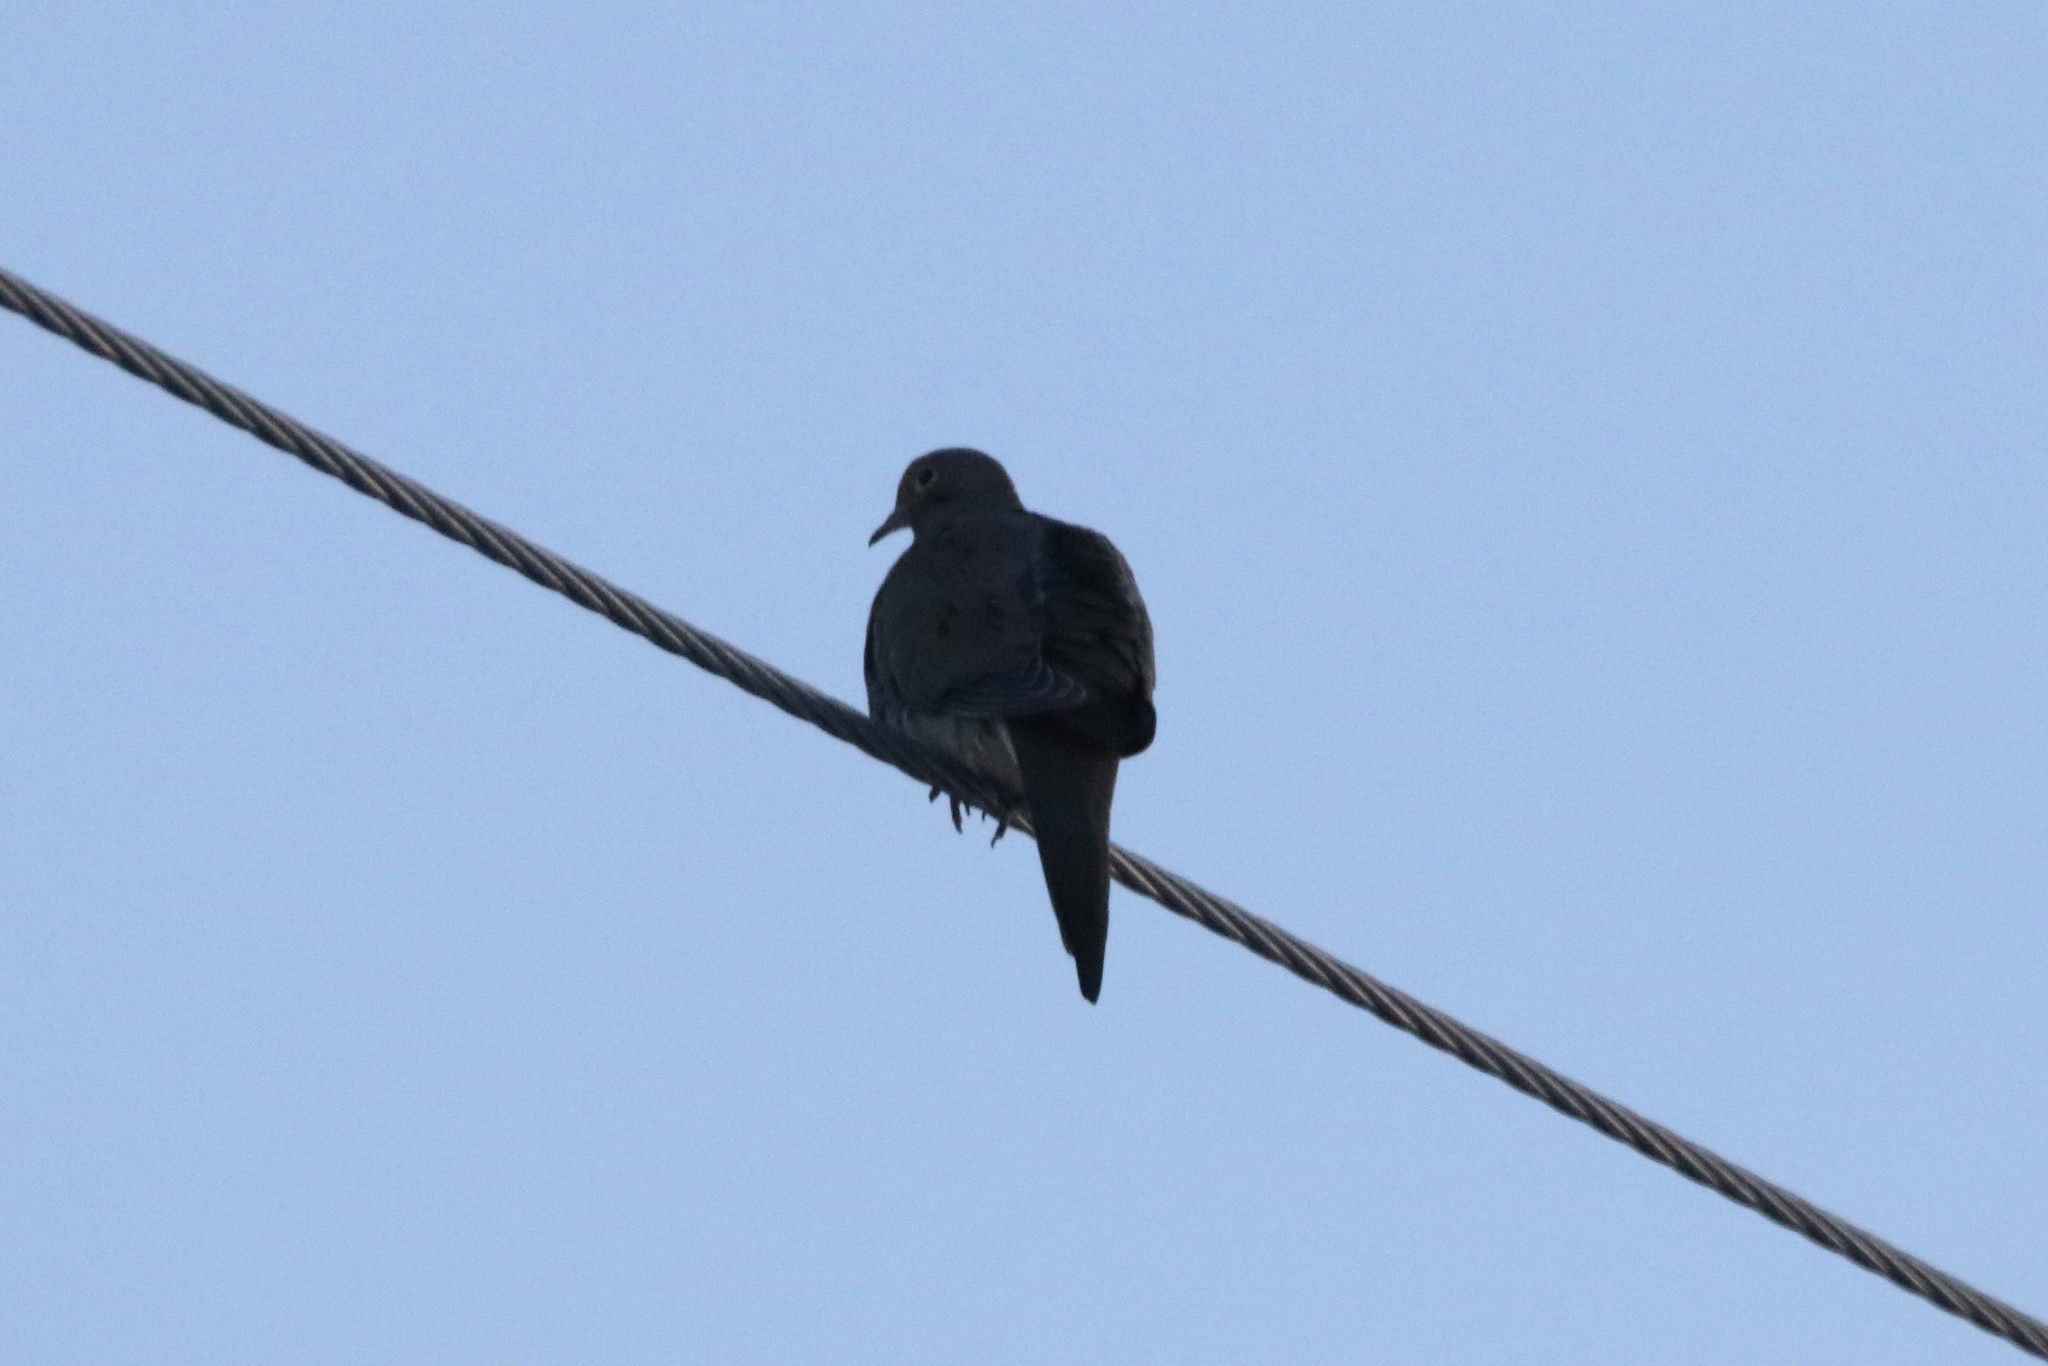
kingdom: Animalia
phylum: Chordata
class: Aves
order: Columbiformes
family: Columbidae
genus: Zenaida
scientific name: Zenaida macroura
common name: Mourning dove
